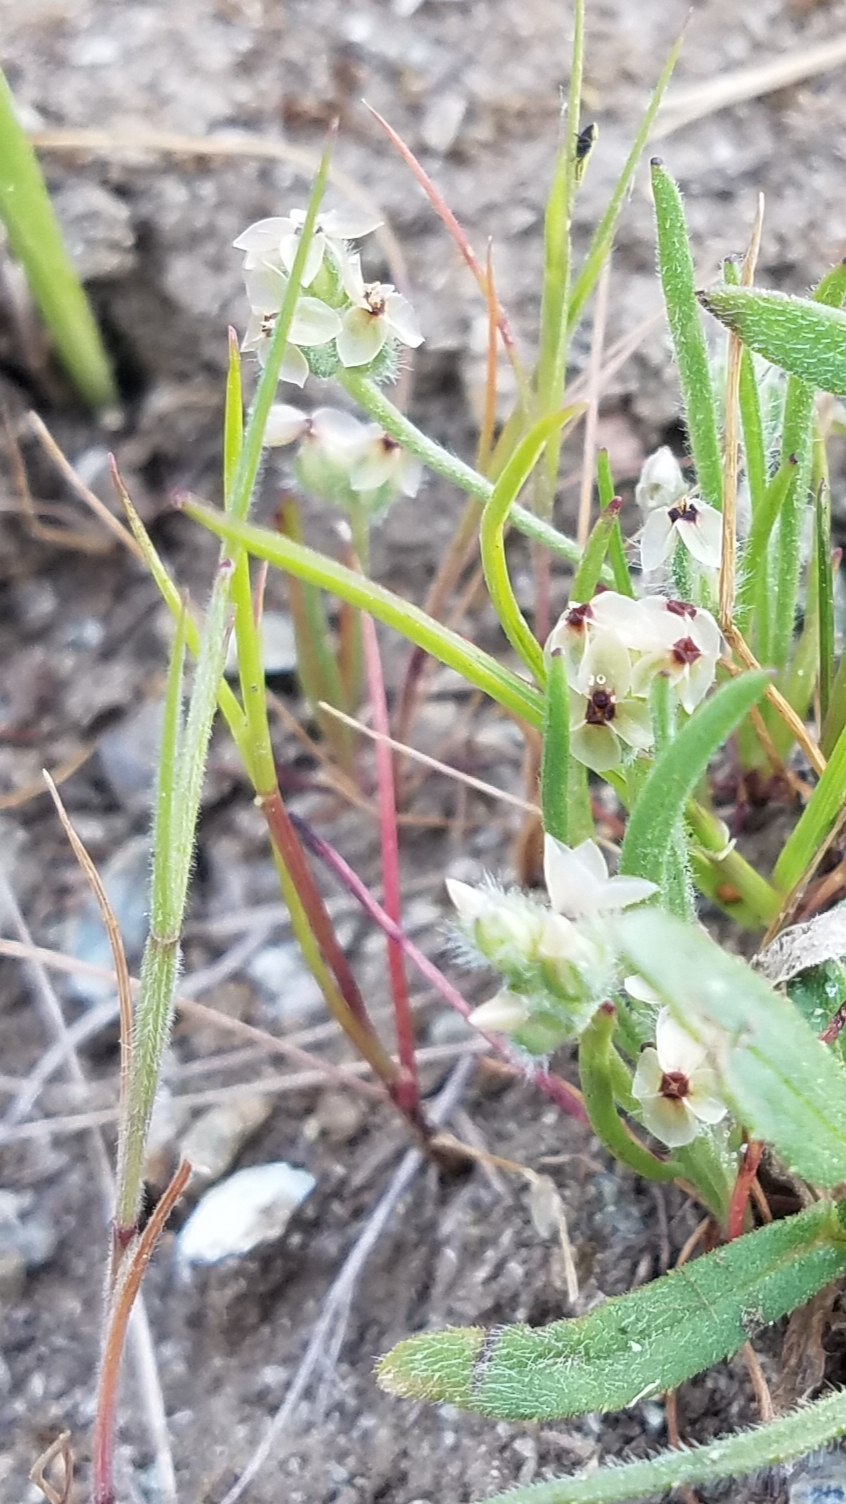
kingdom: Plantae
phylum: Tracheophyta
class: Magnoliopsida
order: Lamiales
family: Plantaginaceae
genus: Plantago
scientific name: Plantago erecta
